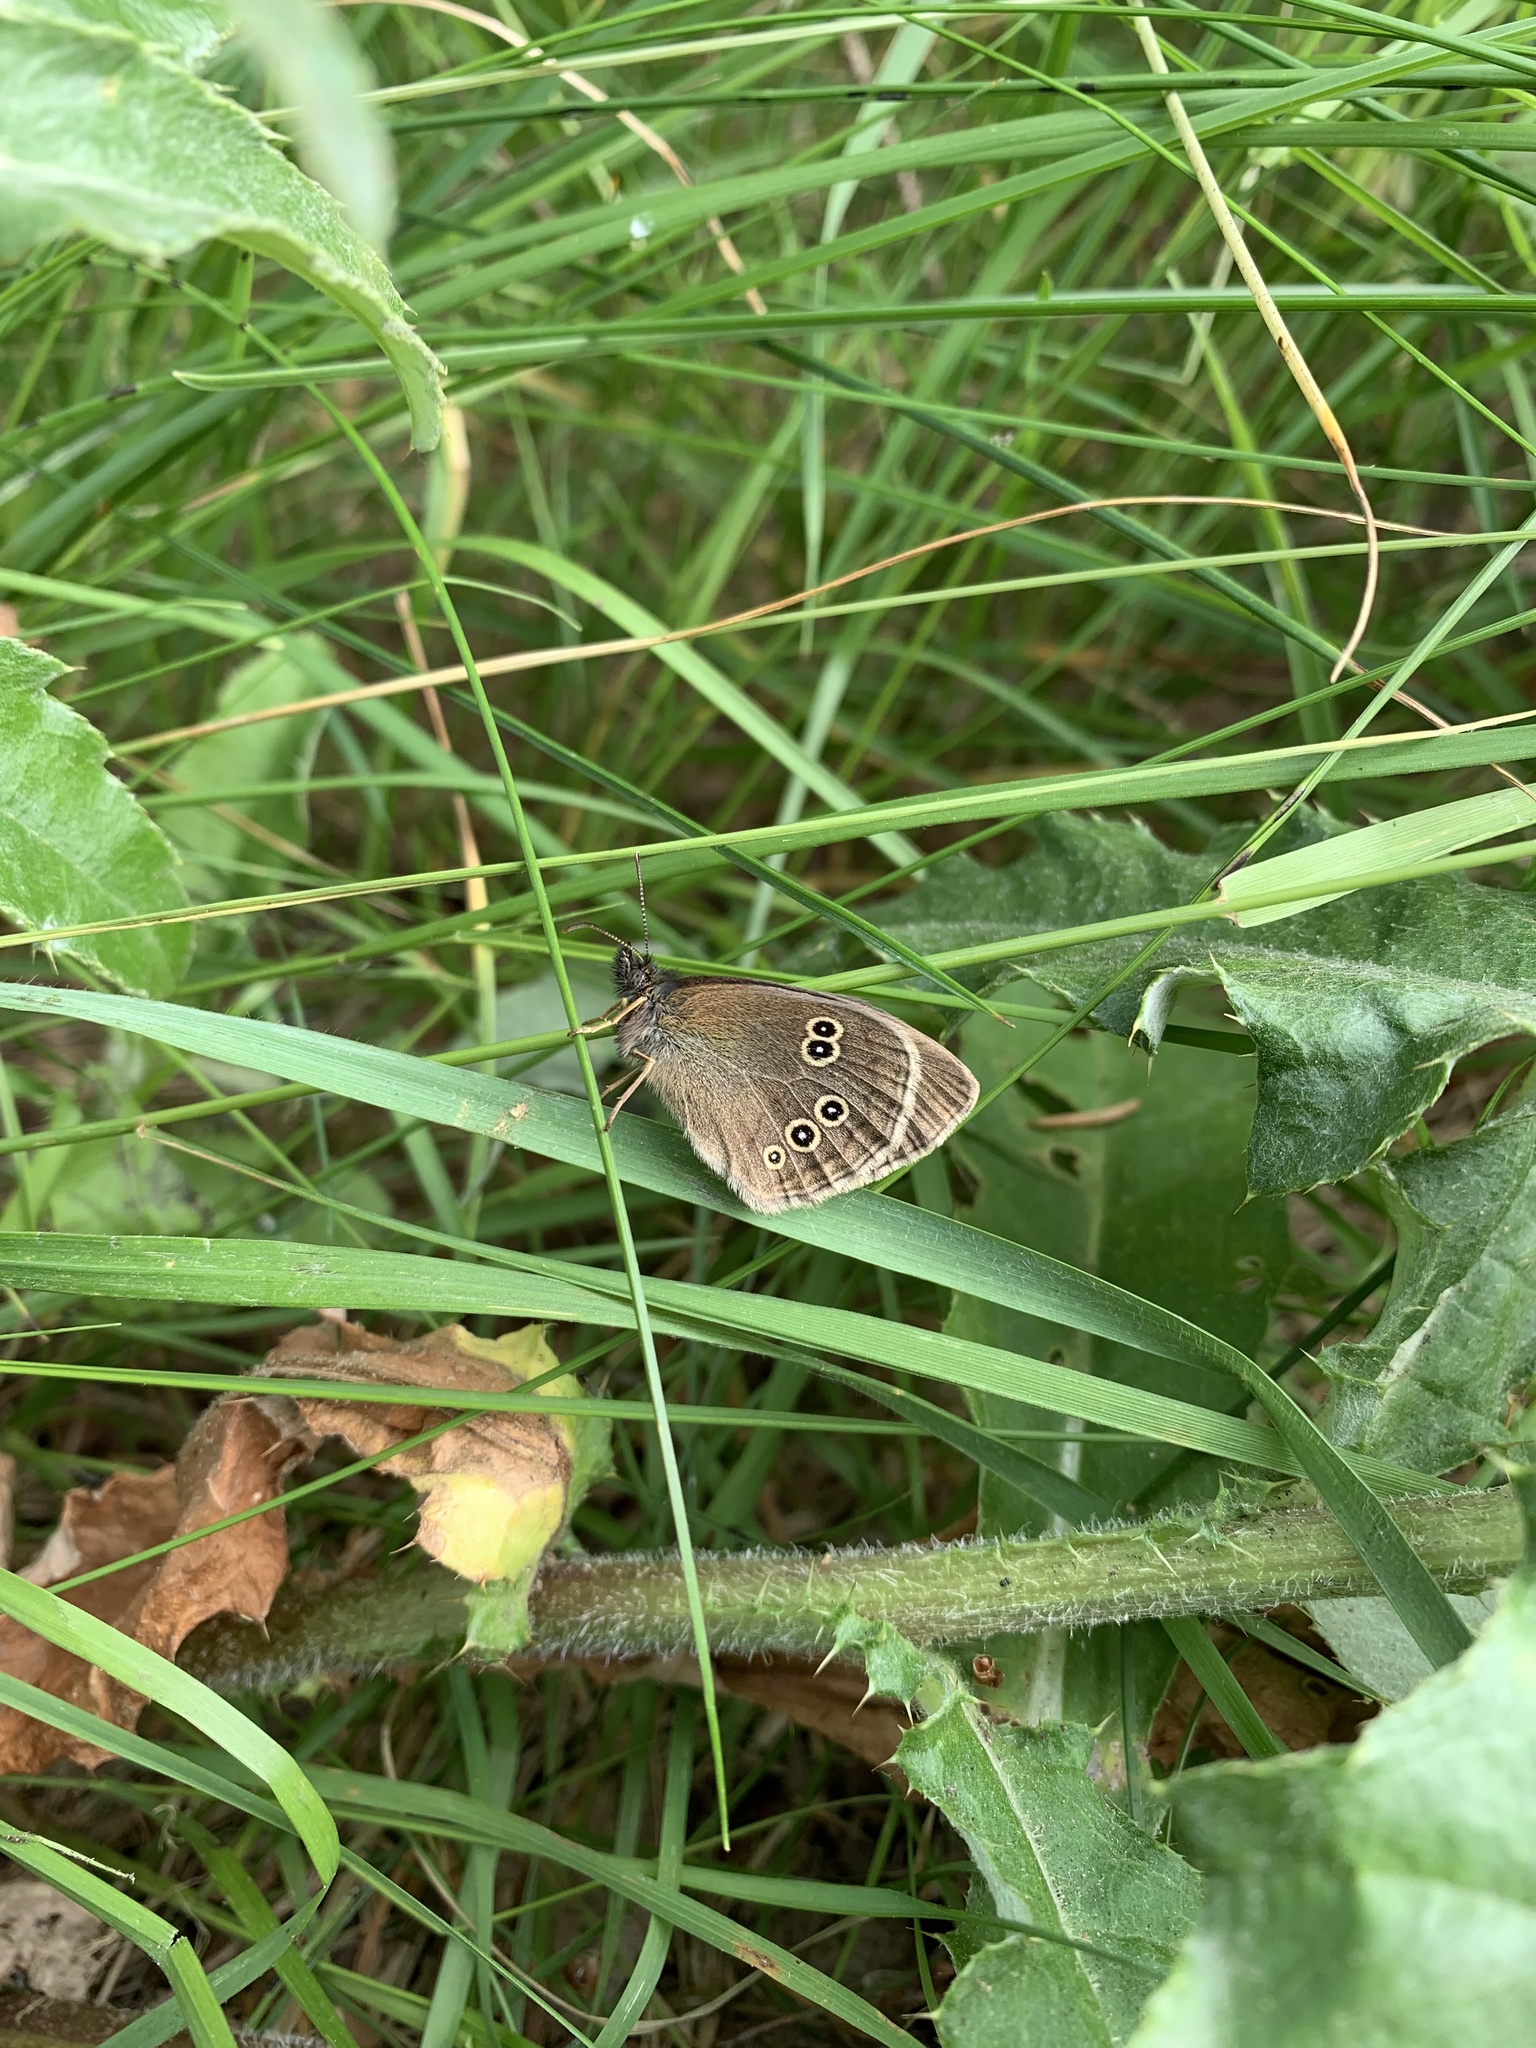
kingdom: Animalia
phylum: Arthropoda
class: Insecta
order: Lepidoptera
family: Nymphalidae
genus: Aphantopus
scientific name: Aphantopus hyperantus
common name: Ringlet
